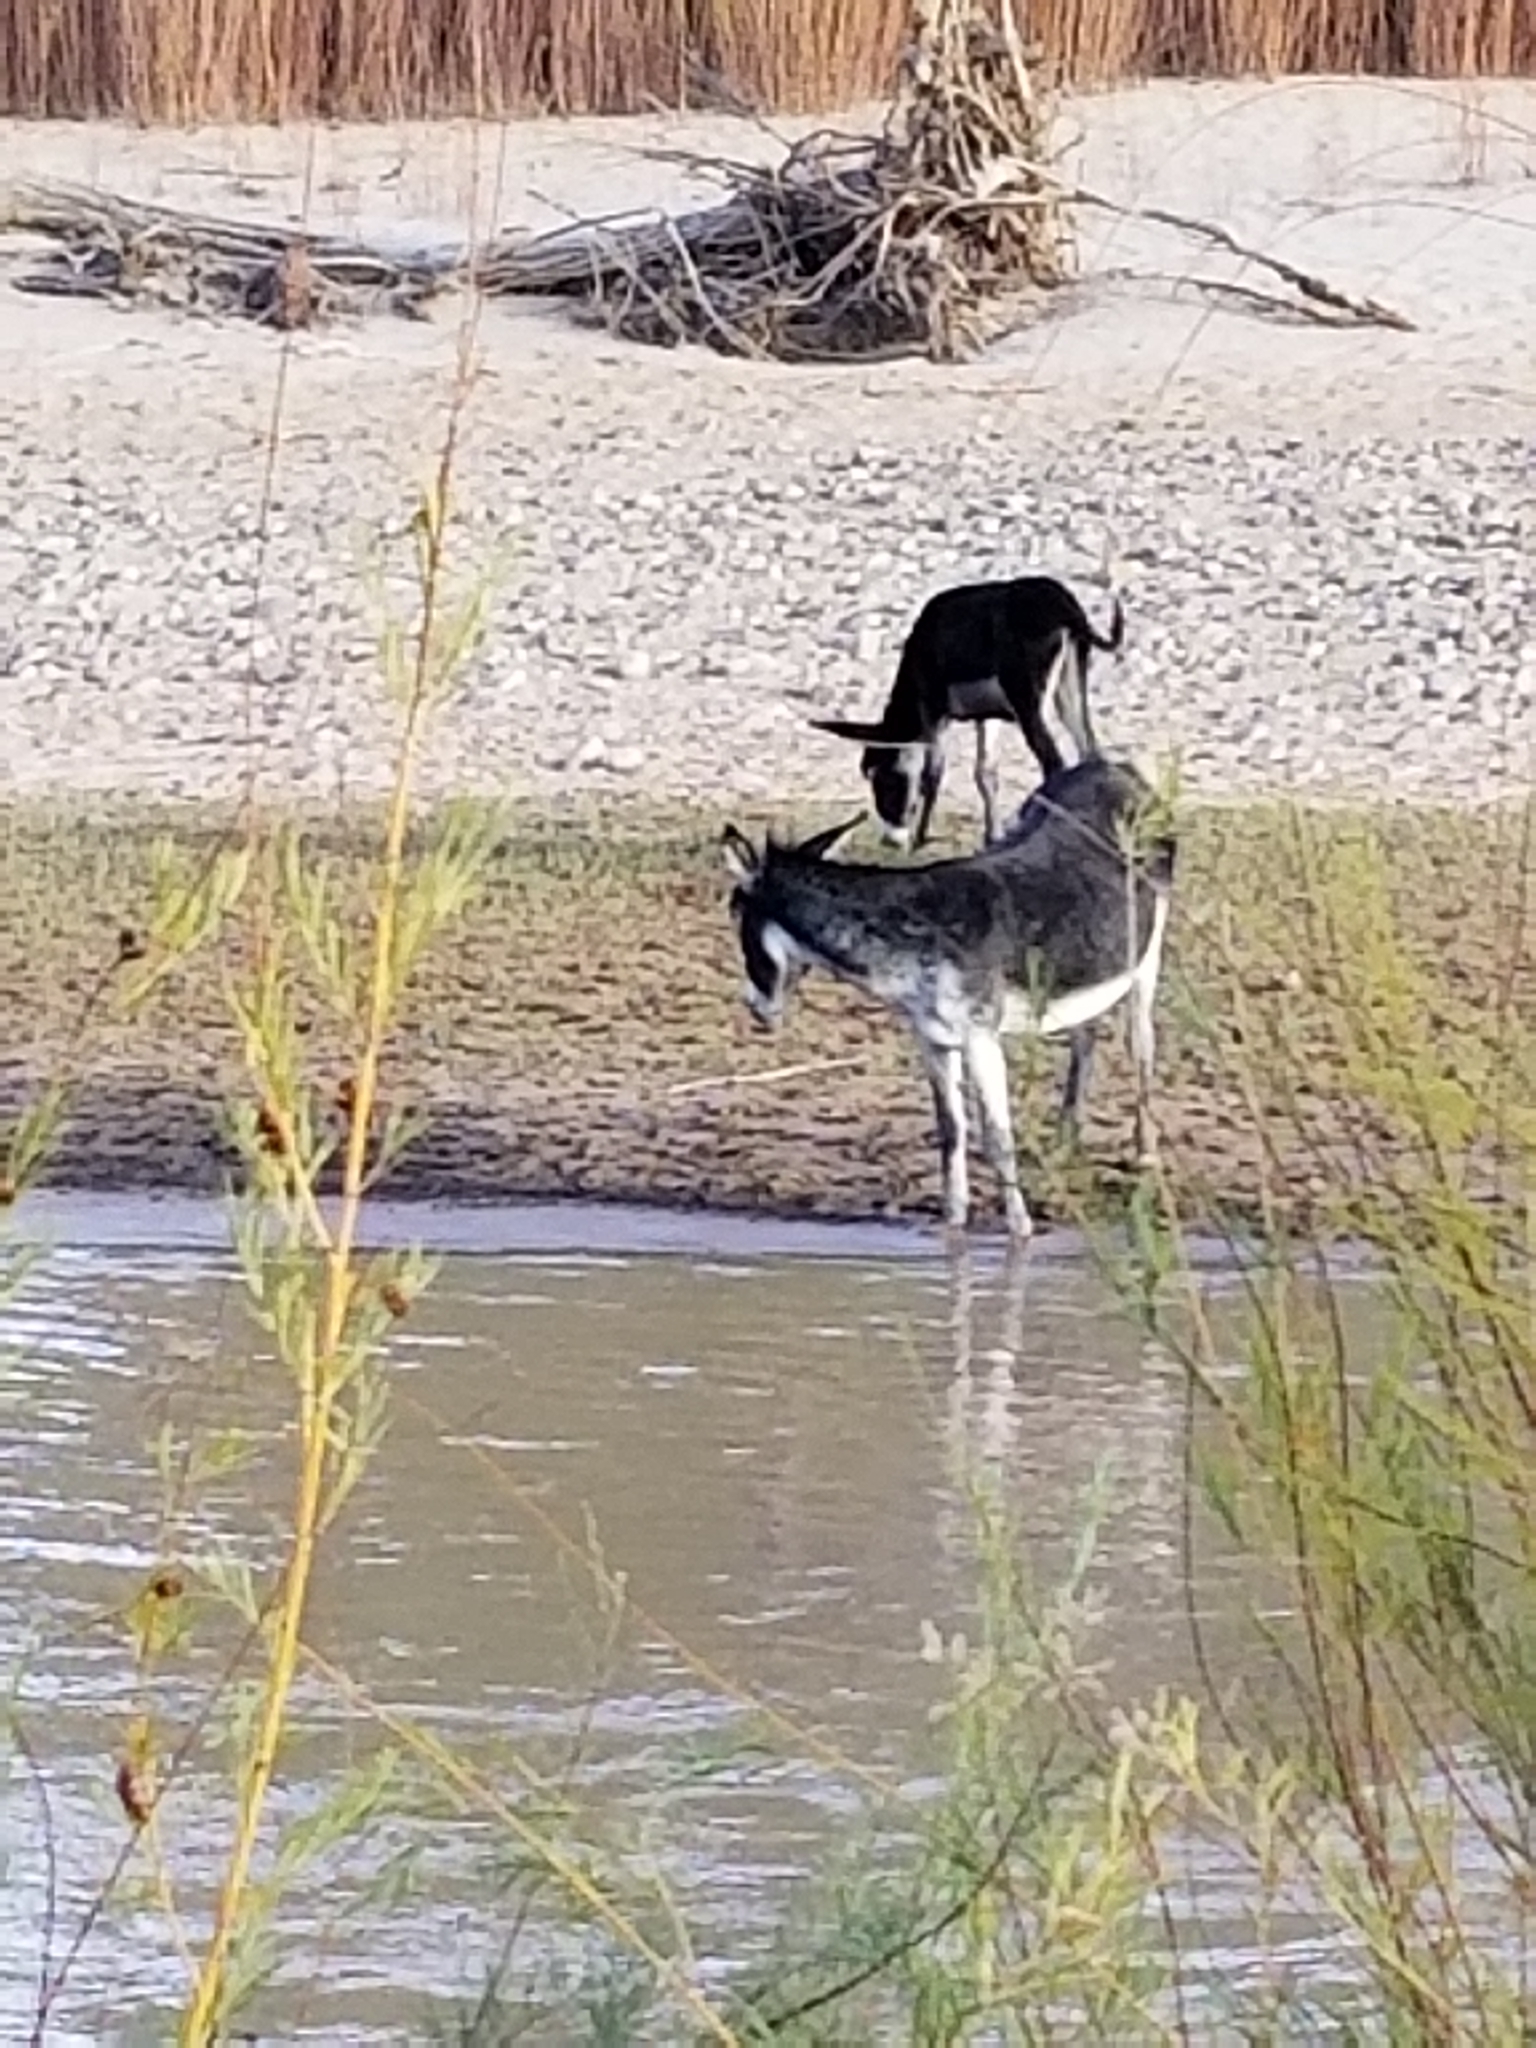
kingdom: Animalia
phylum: Chordata
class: Mammalia
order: Perissodactyla
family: Equidae
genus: Equus
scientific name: Equus asinus
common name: Ass
